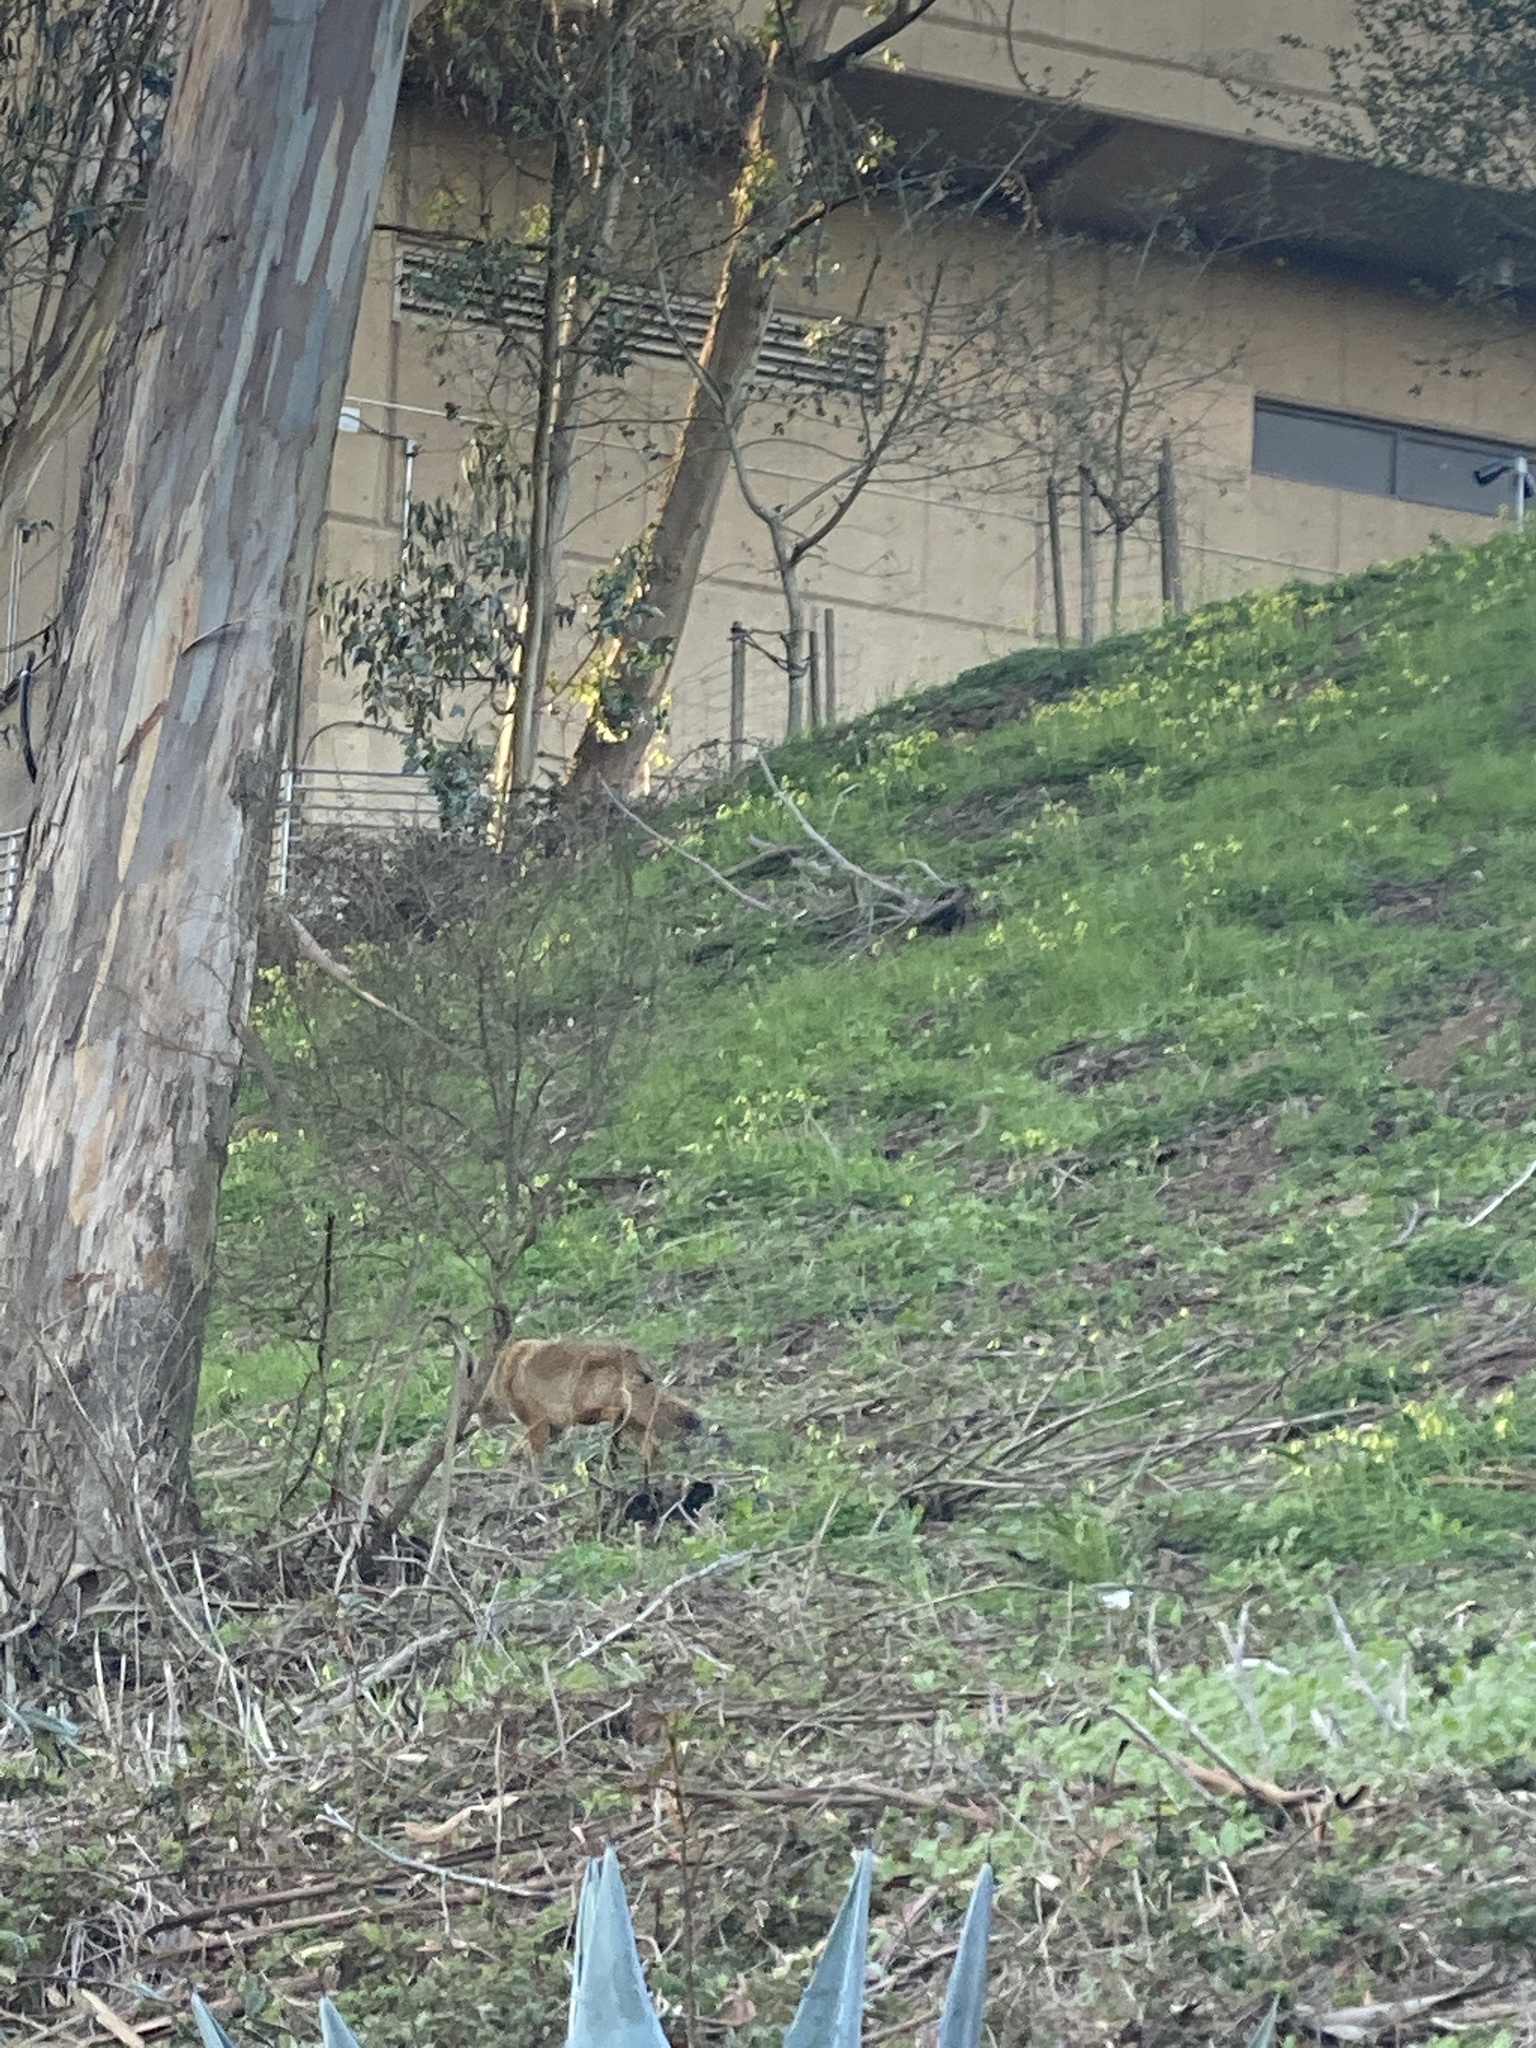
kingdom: Animalia
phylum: Chordata
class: Mammalia
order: Carnivora
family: Canidae
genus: Canis
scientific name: Canis latrans
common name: Coyote
